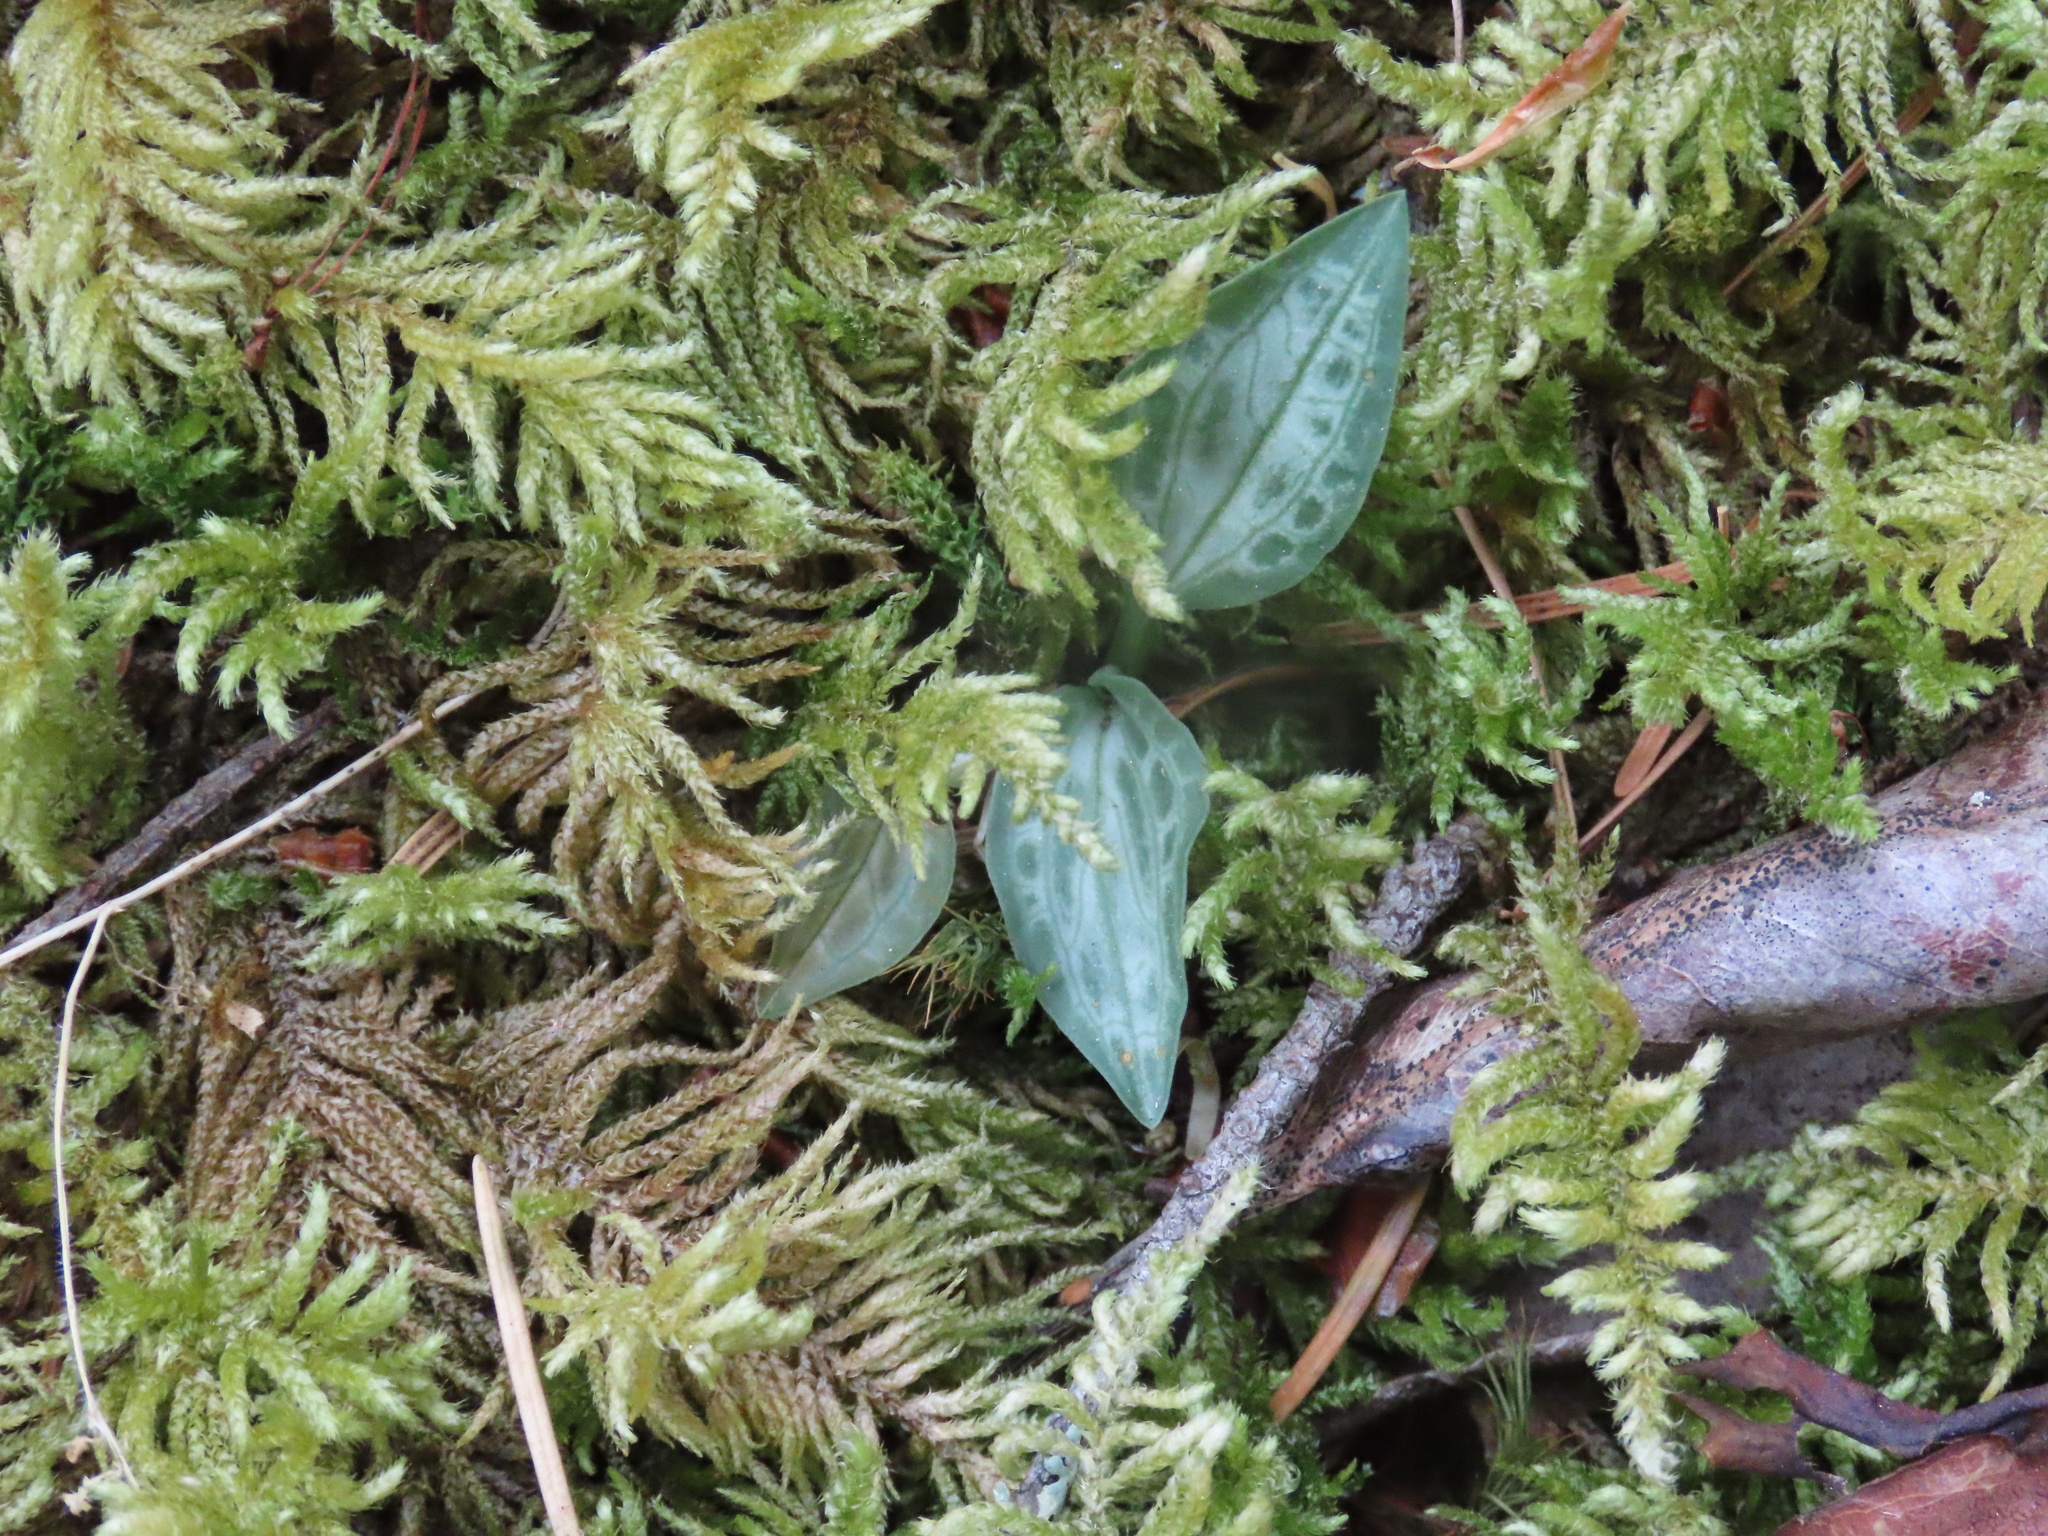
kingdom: Plantae
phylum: Tracheophyta
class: Liliopsida
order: Asparagales
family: Orchidaceae
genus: Goodyera
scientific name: Goodyera oblongifolia
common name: Giant rattlesnake-plantain
